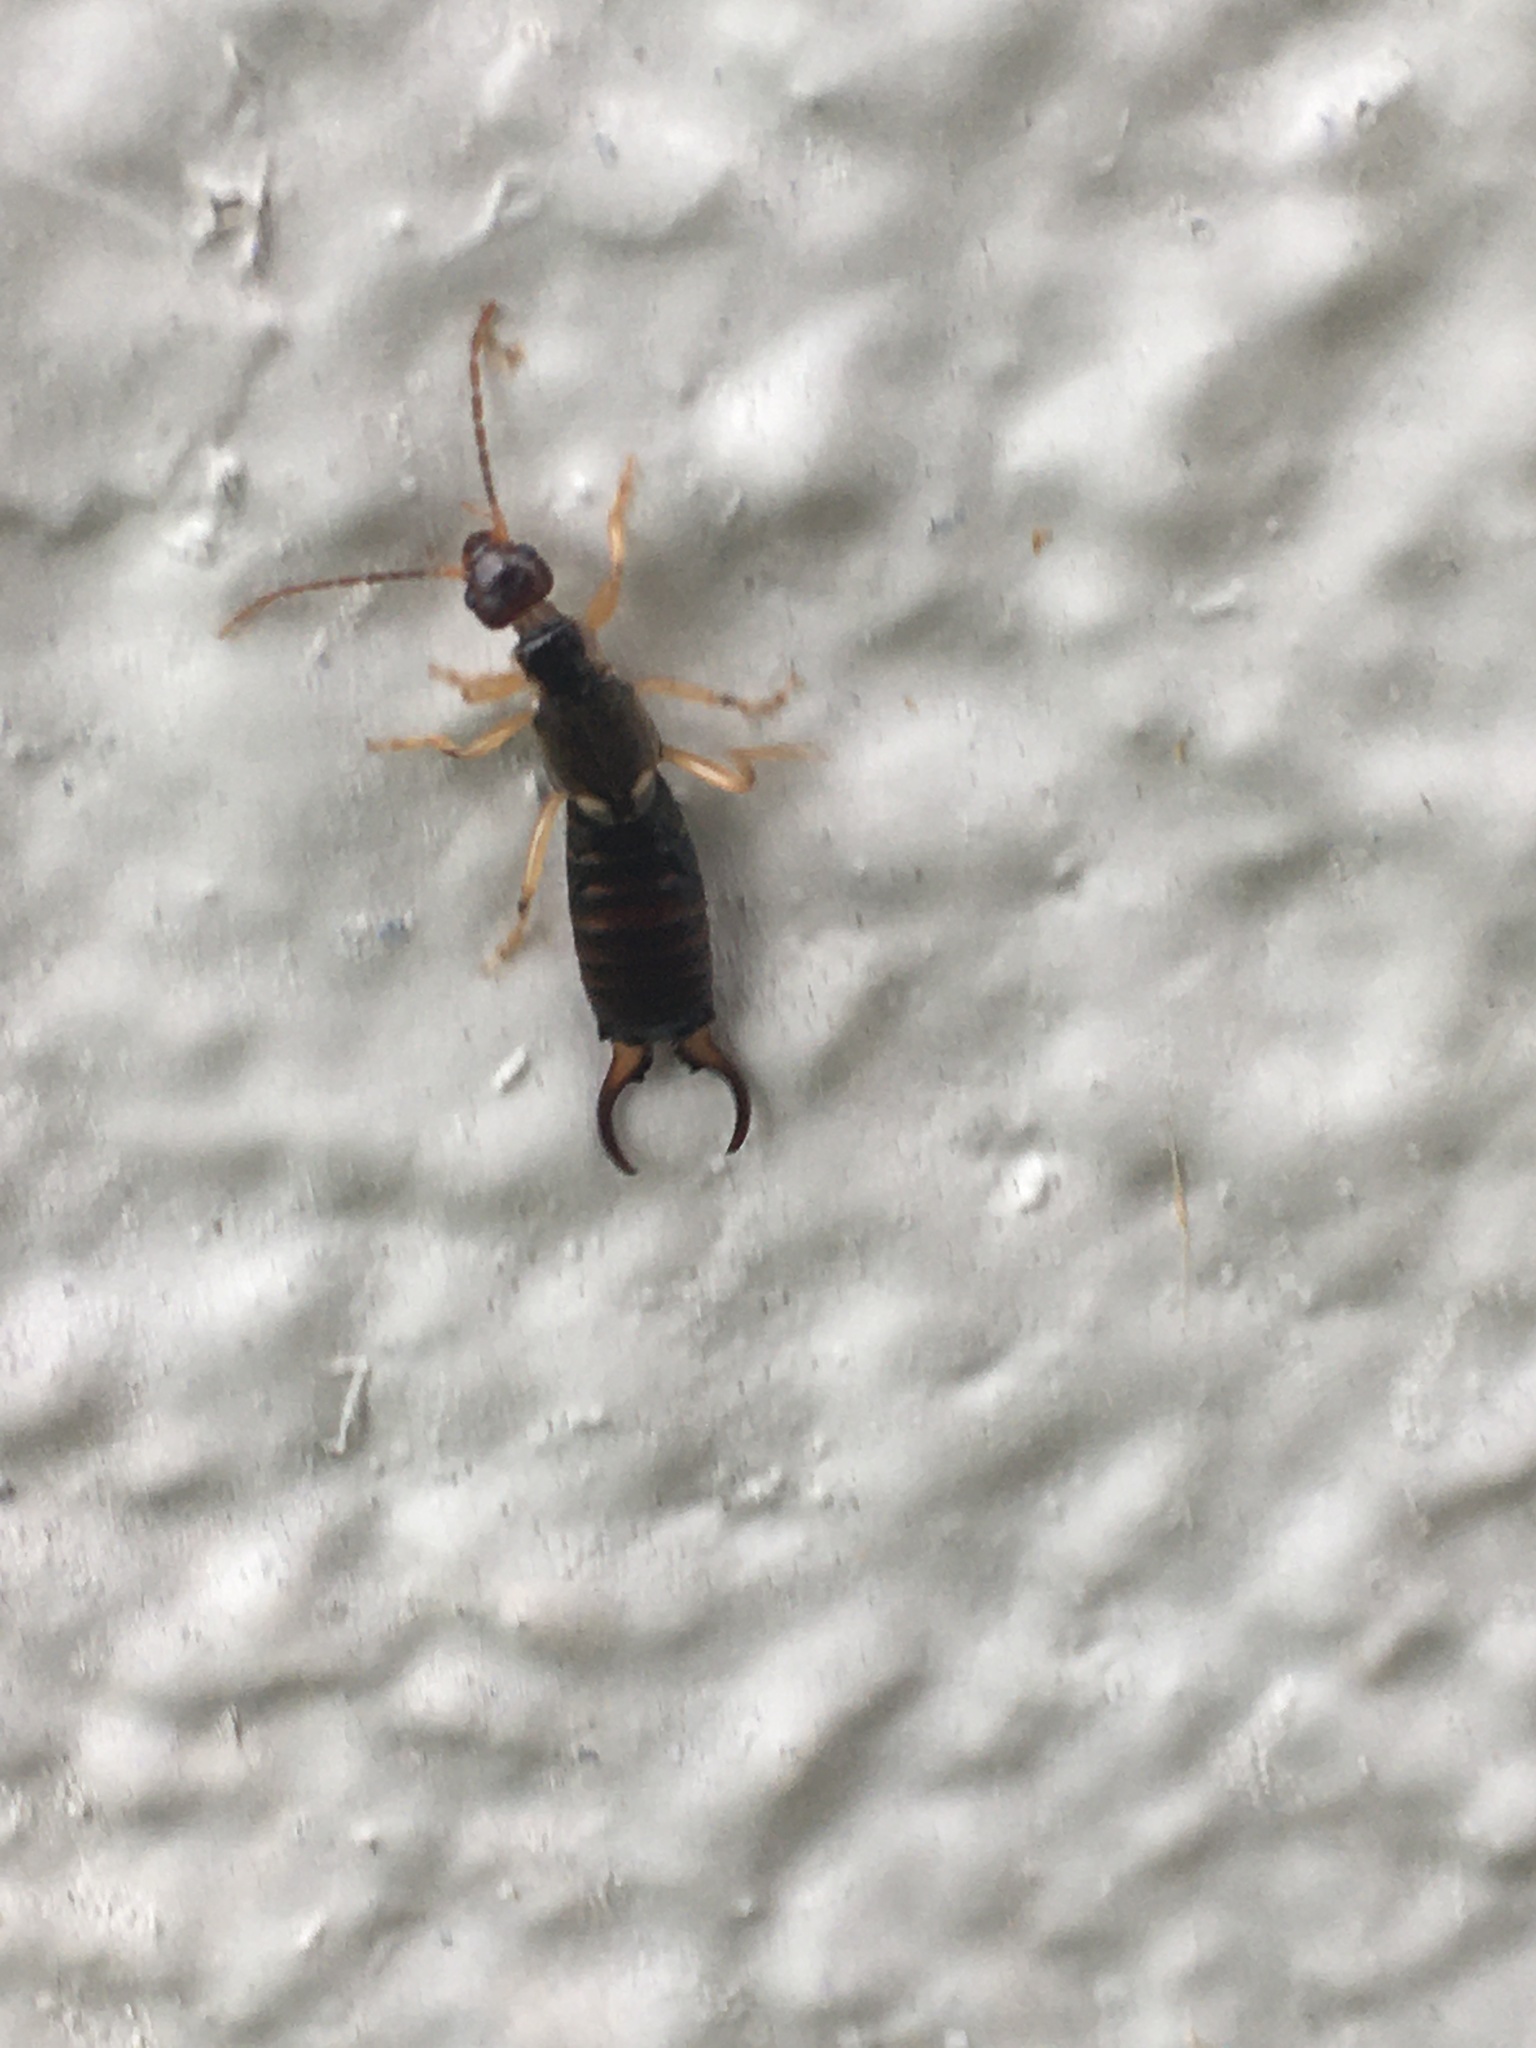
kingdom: Animalia
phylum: Arthropoda
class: Insecta
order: Dermaptera
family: Forficulidae
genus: Forficula
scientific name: Forficula
